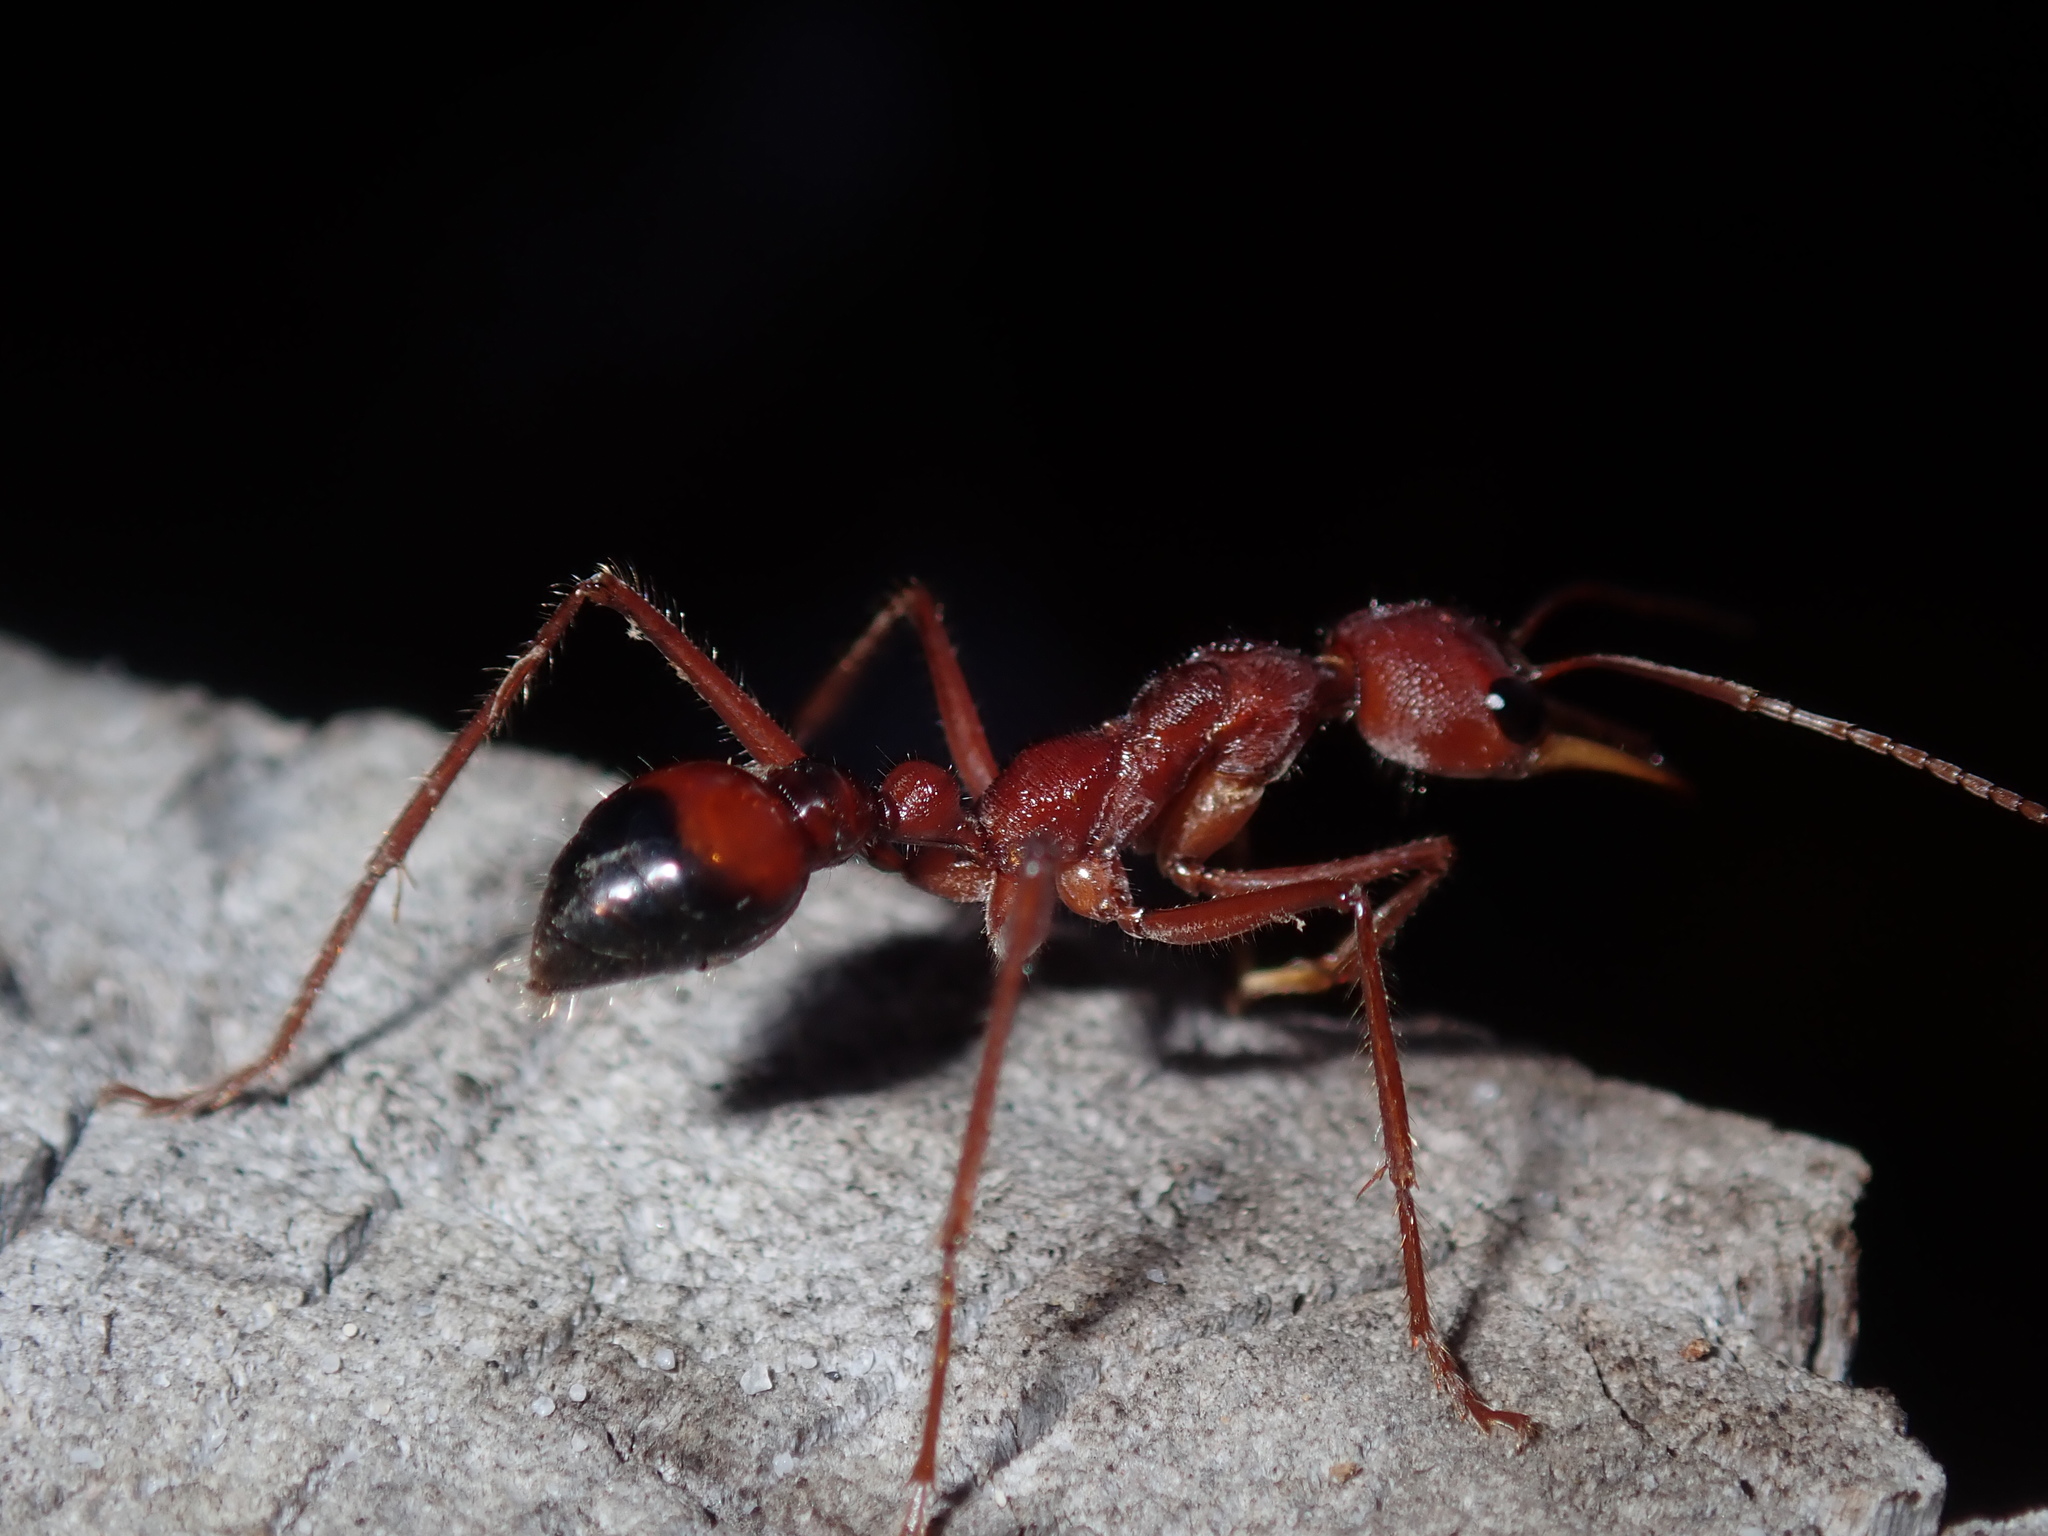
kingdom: Animalia
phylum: Arthropoda
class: Insecta
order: Hymenoptera
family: Formicidae
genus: Myrmecia
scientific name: Myrmecia gulosa
